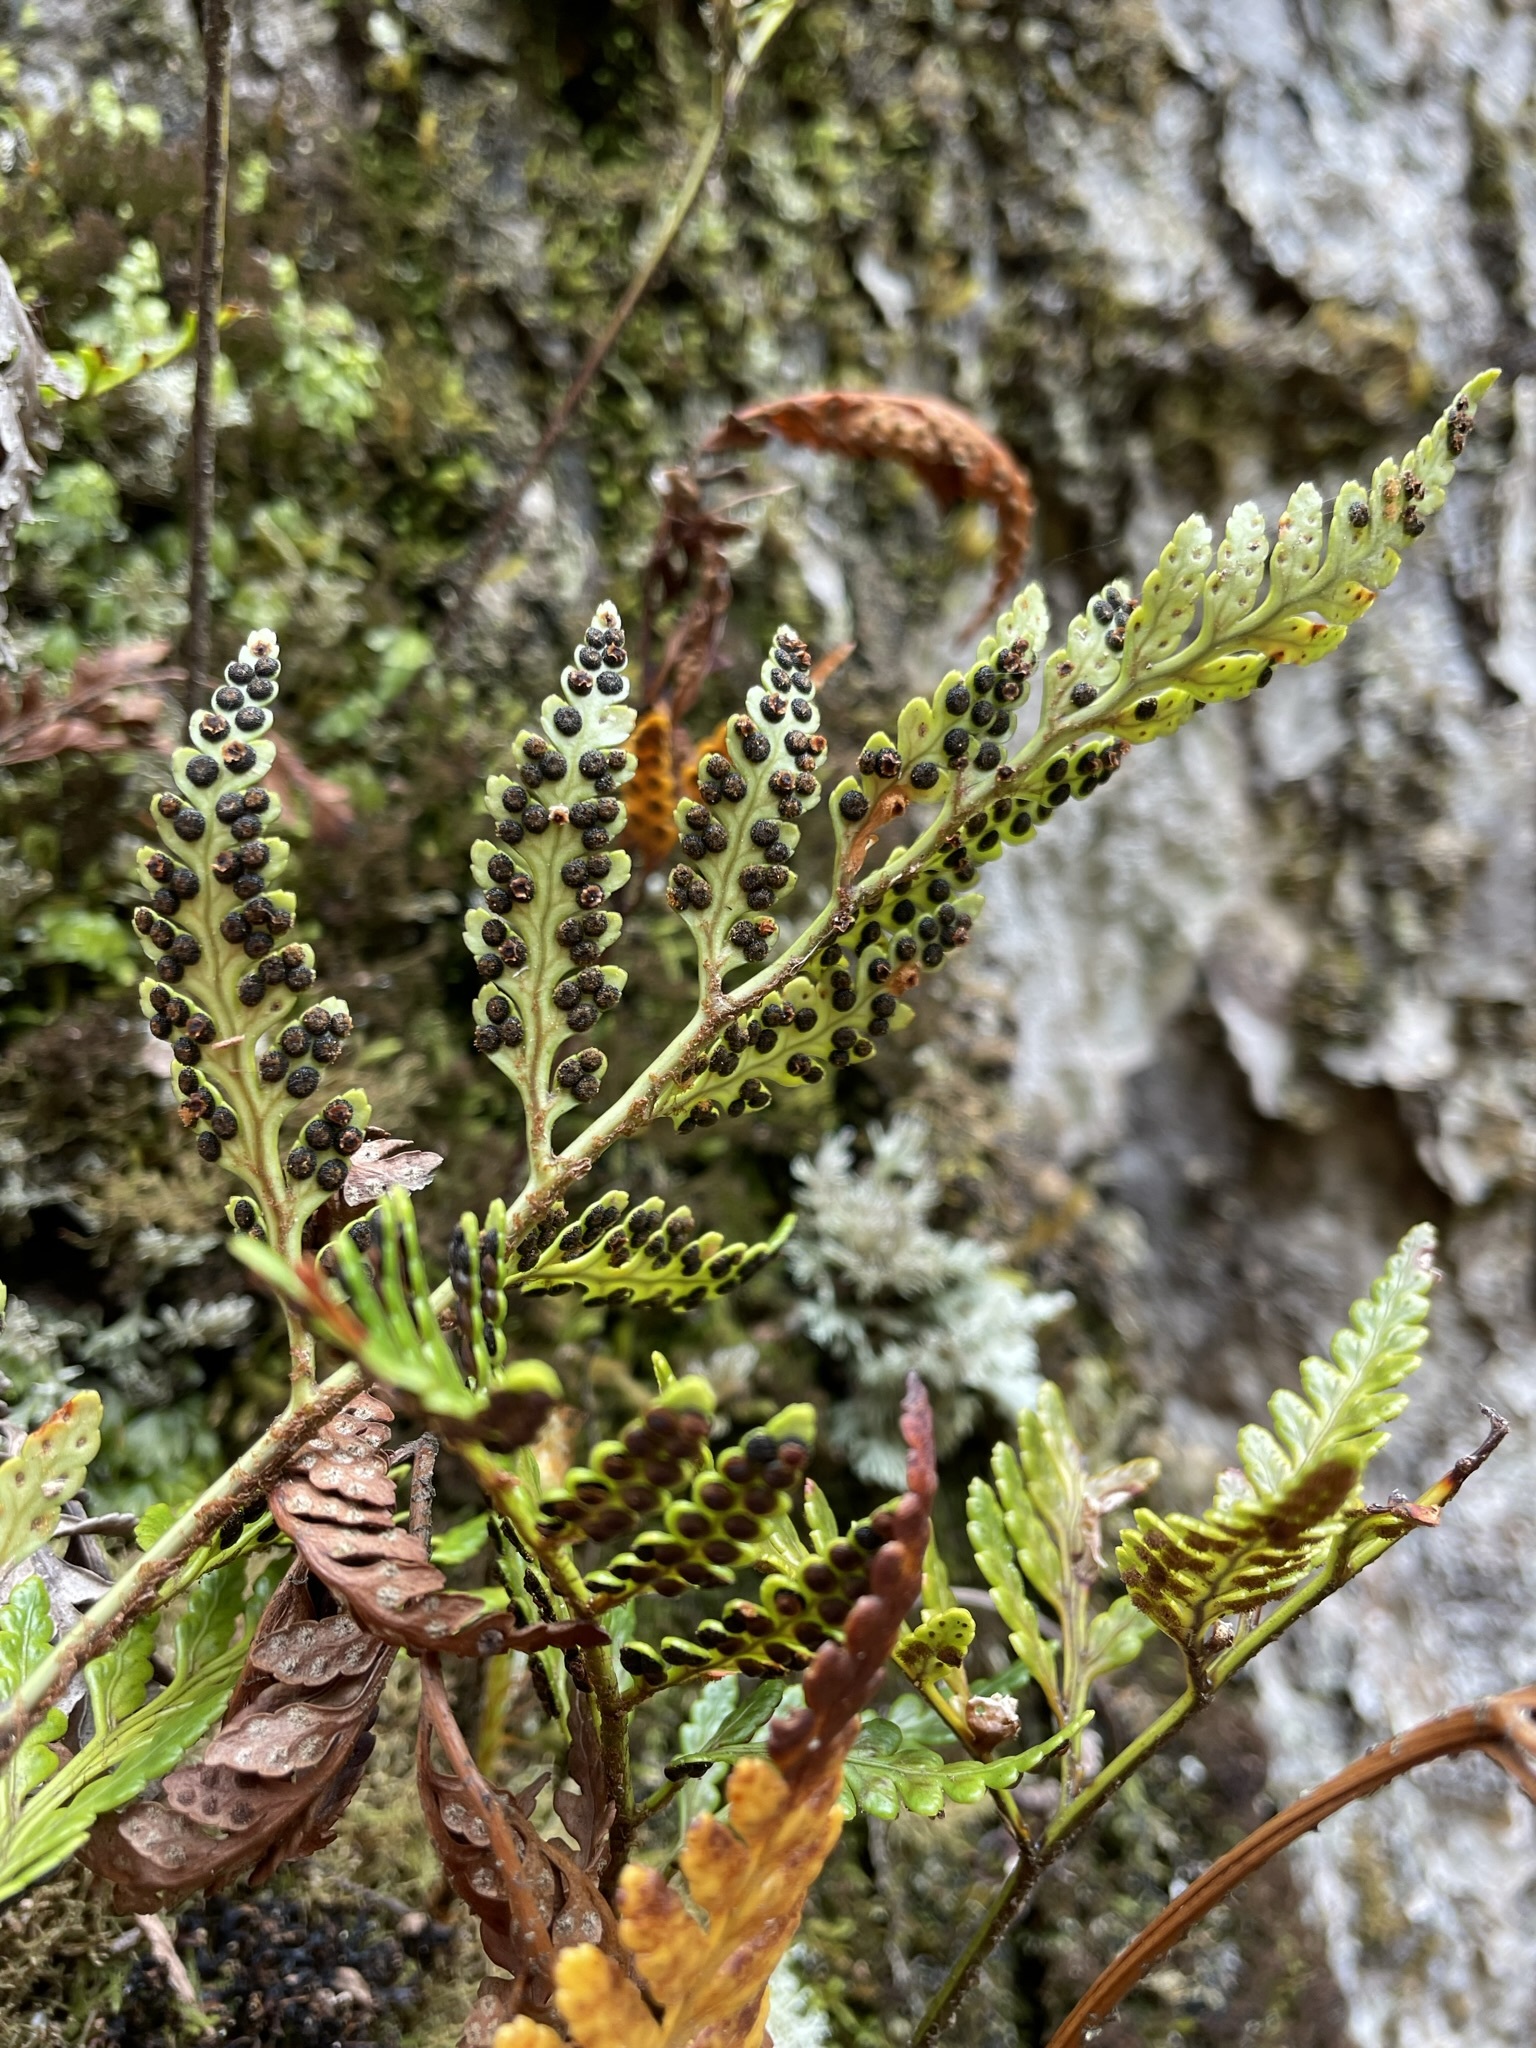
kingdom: Plantae
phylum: Tracheophyta
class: Polypodiopsida
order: Polypodiales
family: Dryopteridaceae
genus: Rumohra
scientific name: Rumohra adiantiformis
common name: Leather fern
